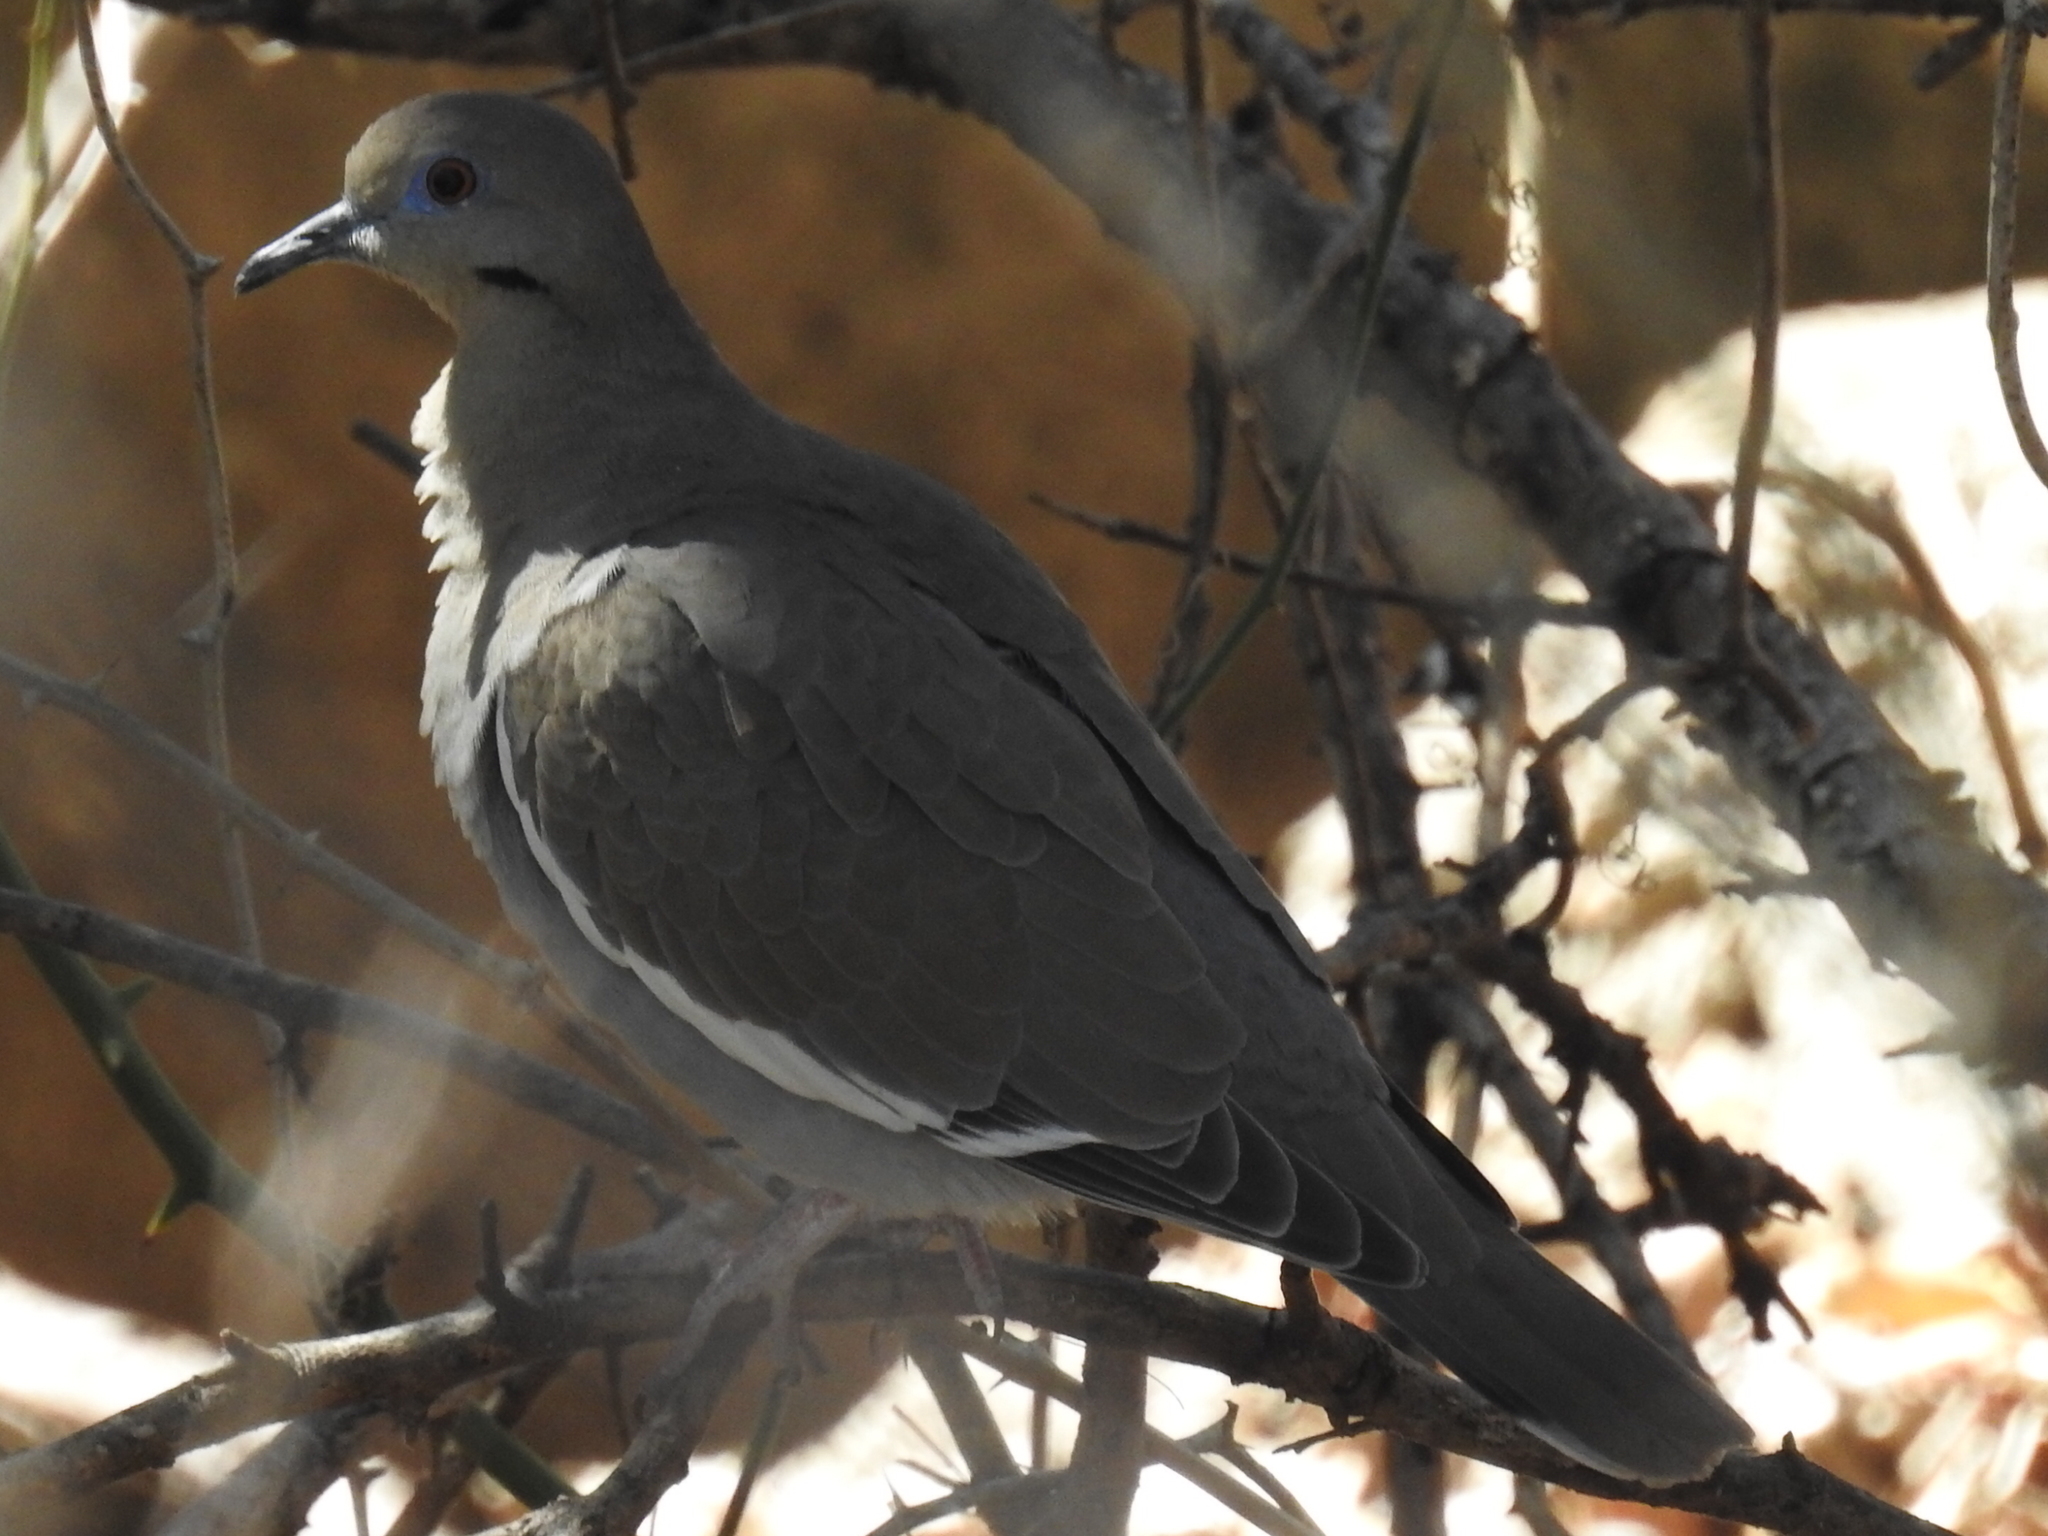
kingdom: Animalia
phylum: Chordata
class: Aves
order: Columbiformes
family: Columbidae
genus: Zenaida
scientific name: Zenaida asiatica
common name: White-winged dove
